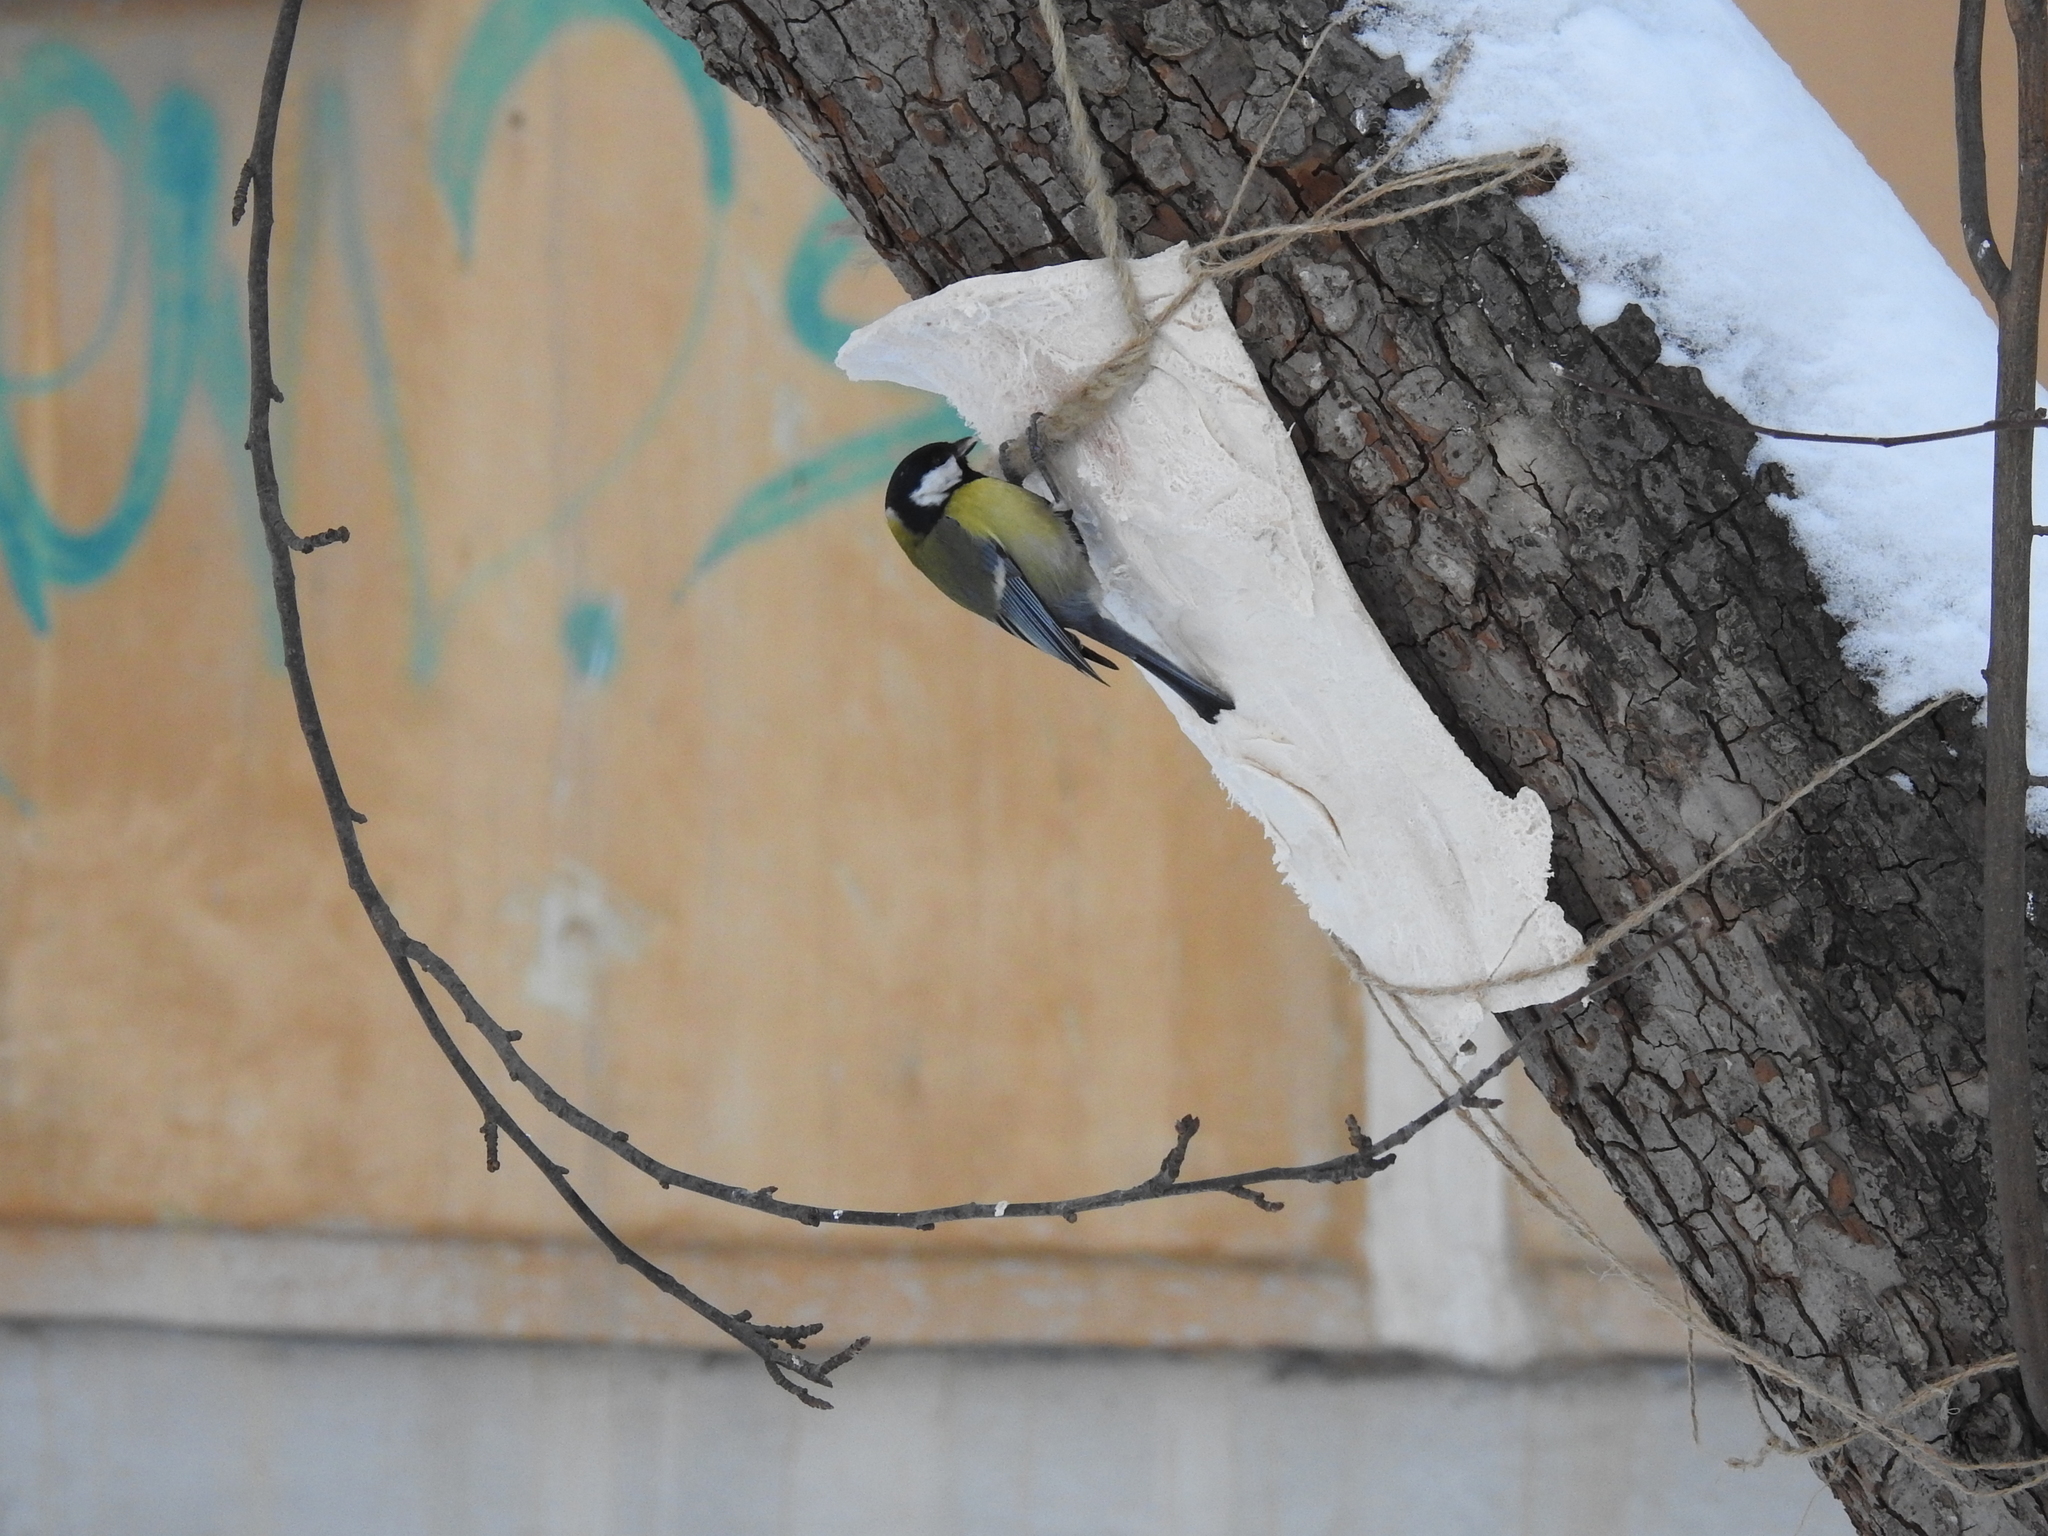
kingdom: Animalia
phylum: Chordata
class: Aves
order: Passeriformes
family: Paridae
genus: Parus
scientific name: Parus major
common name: Great tit
